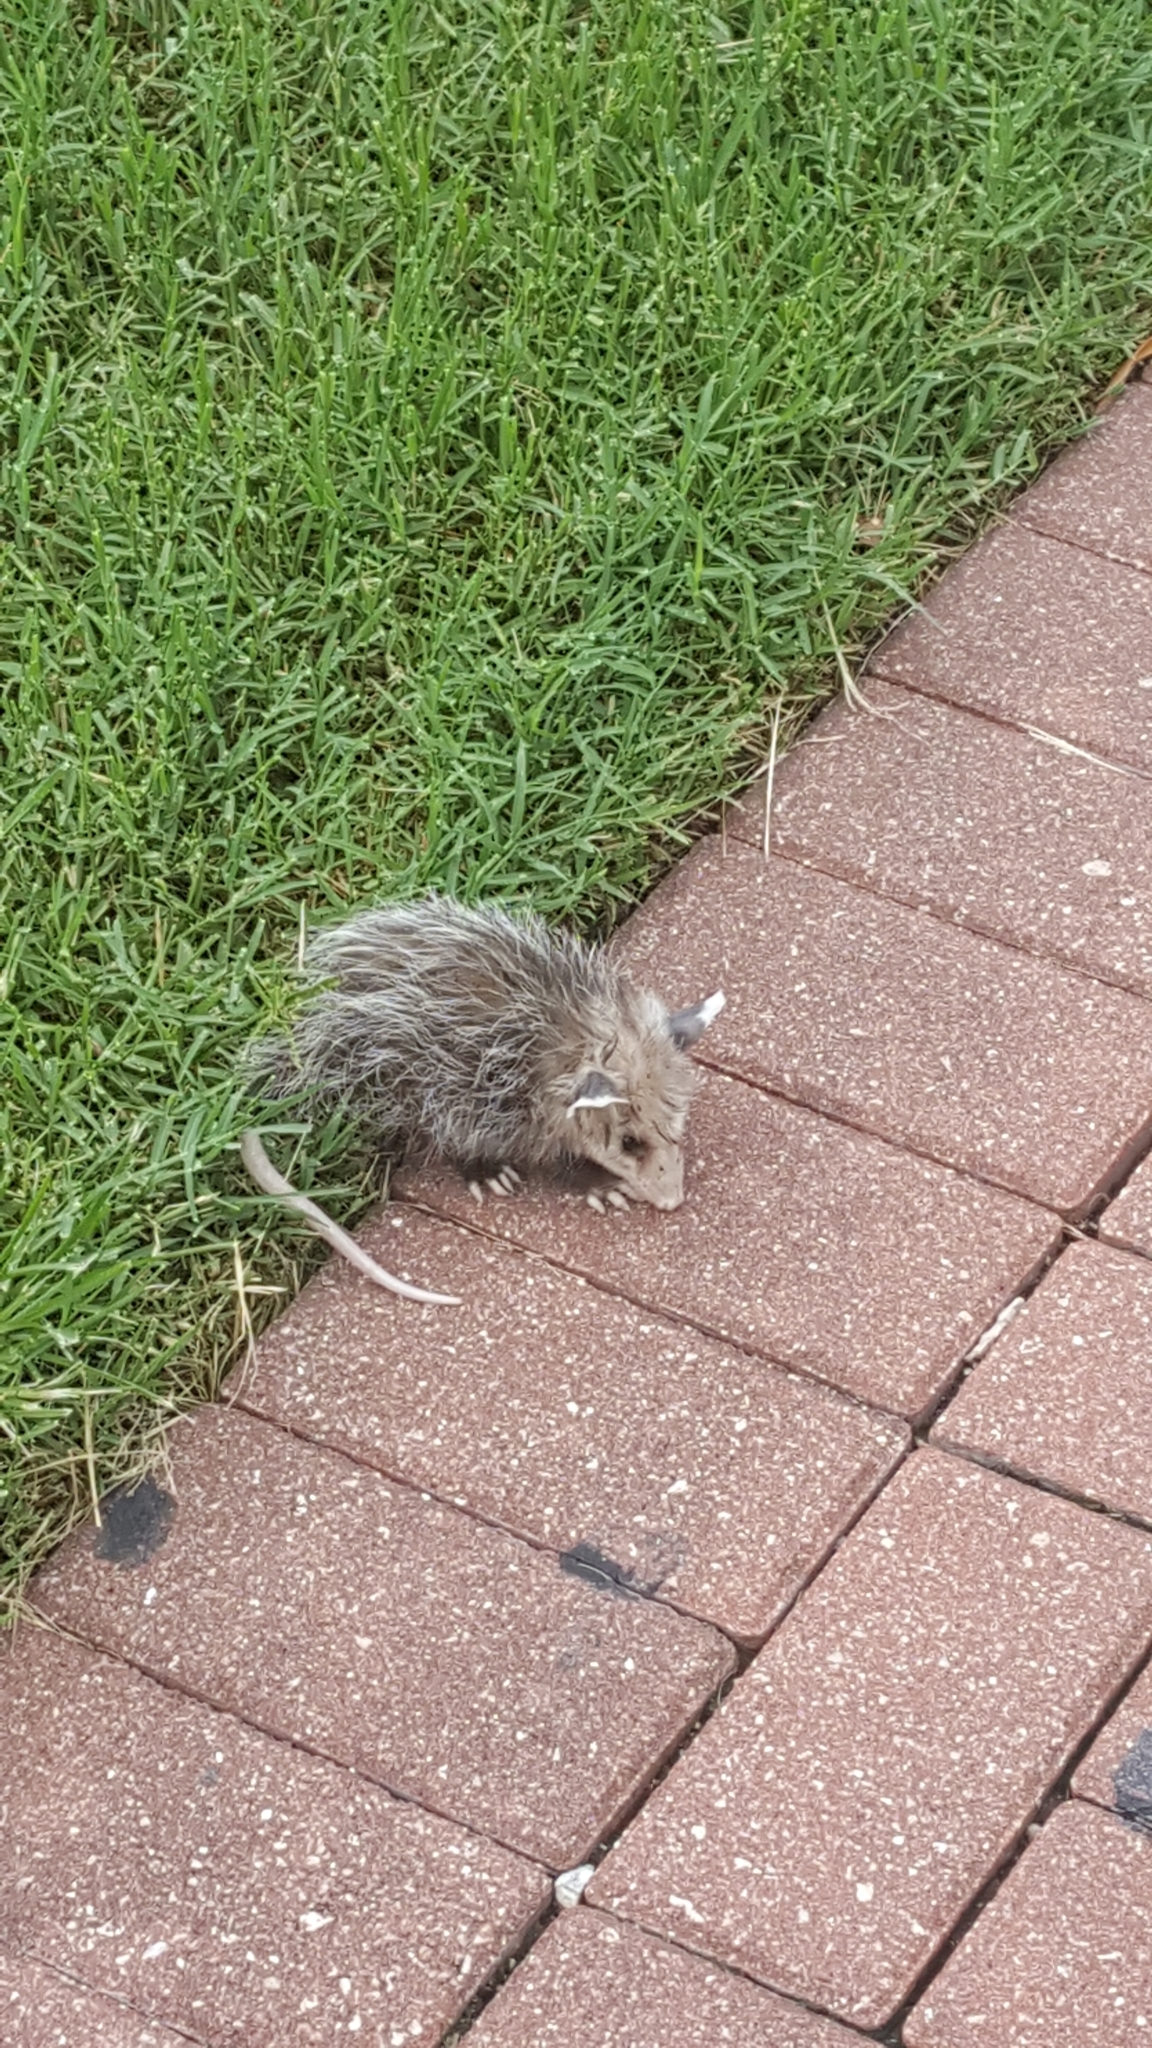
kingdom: Animalia
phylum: Chordata
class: Mammalia
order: Didelphimorphia
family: Didelphidae
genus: Didelphis
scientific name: Didelphis virginiana
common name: Virginia opossum
